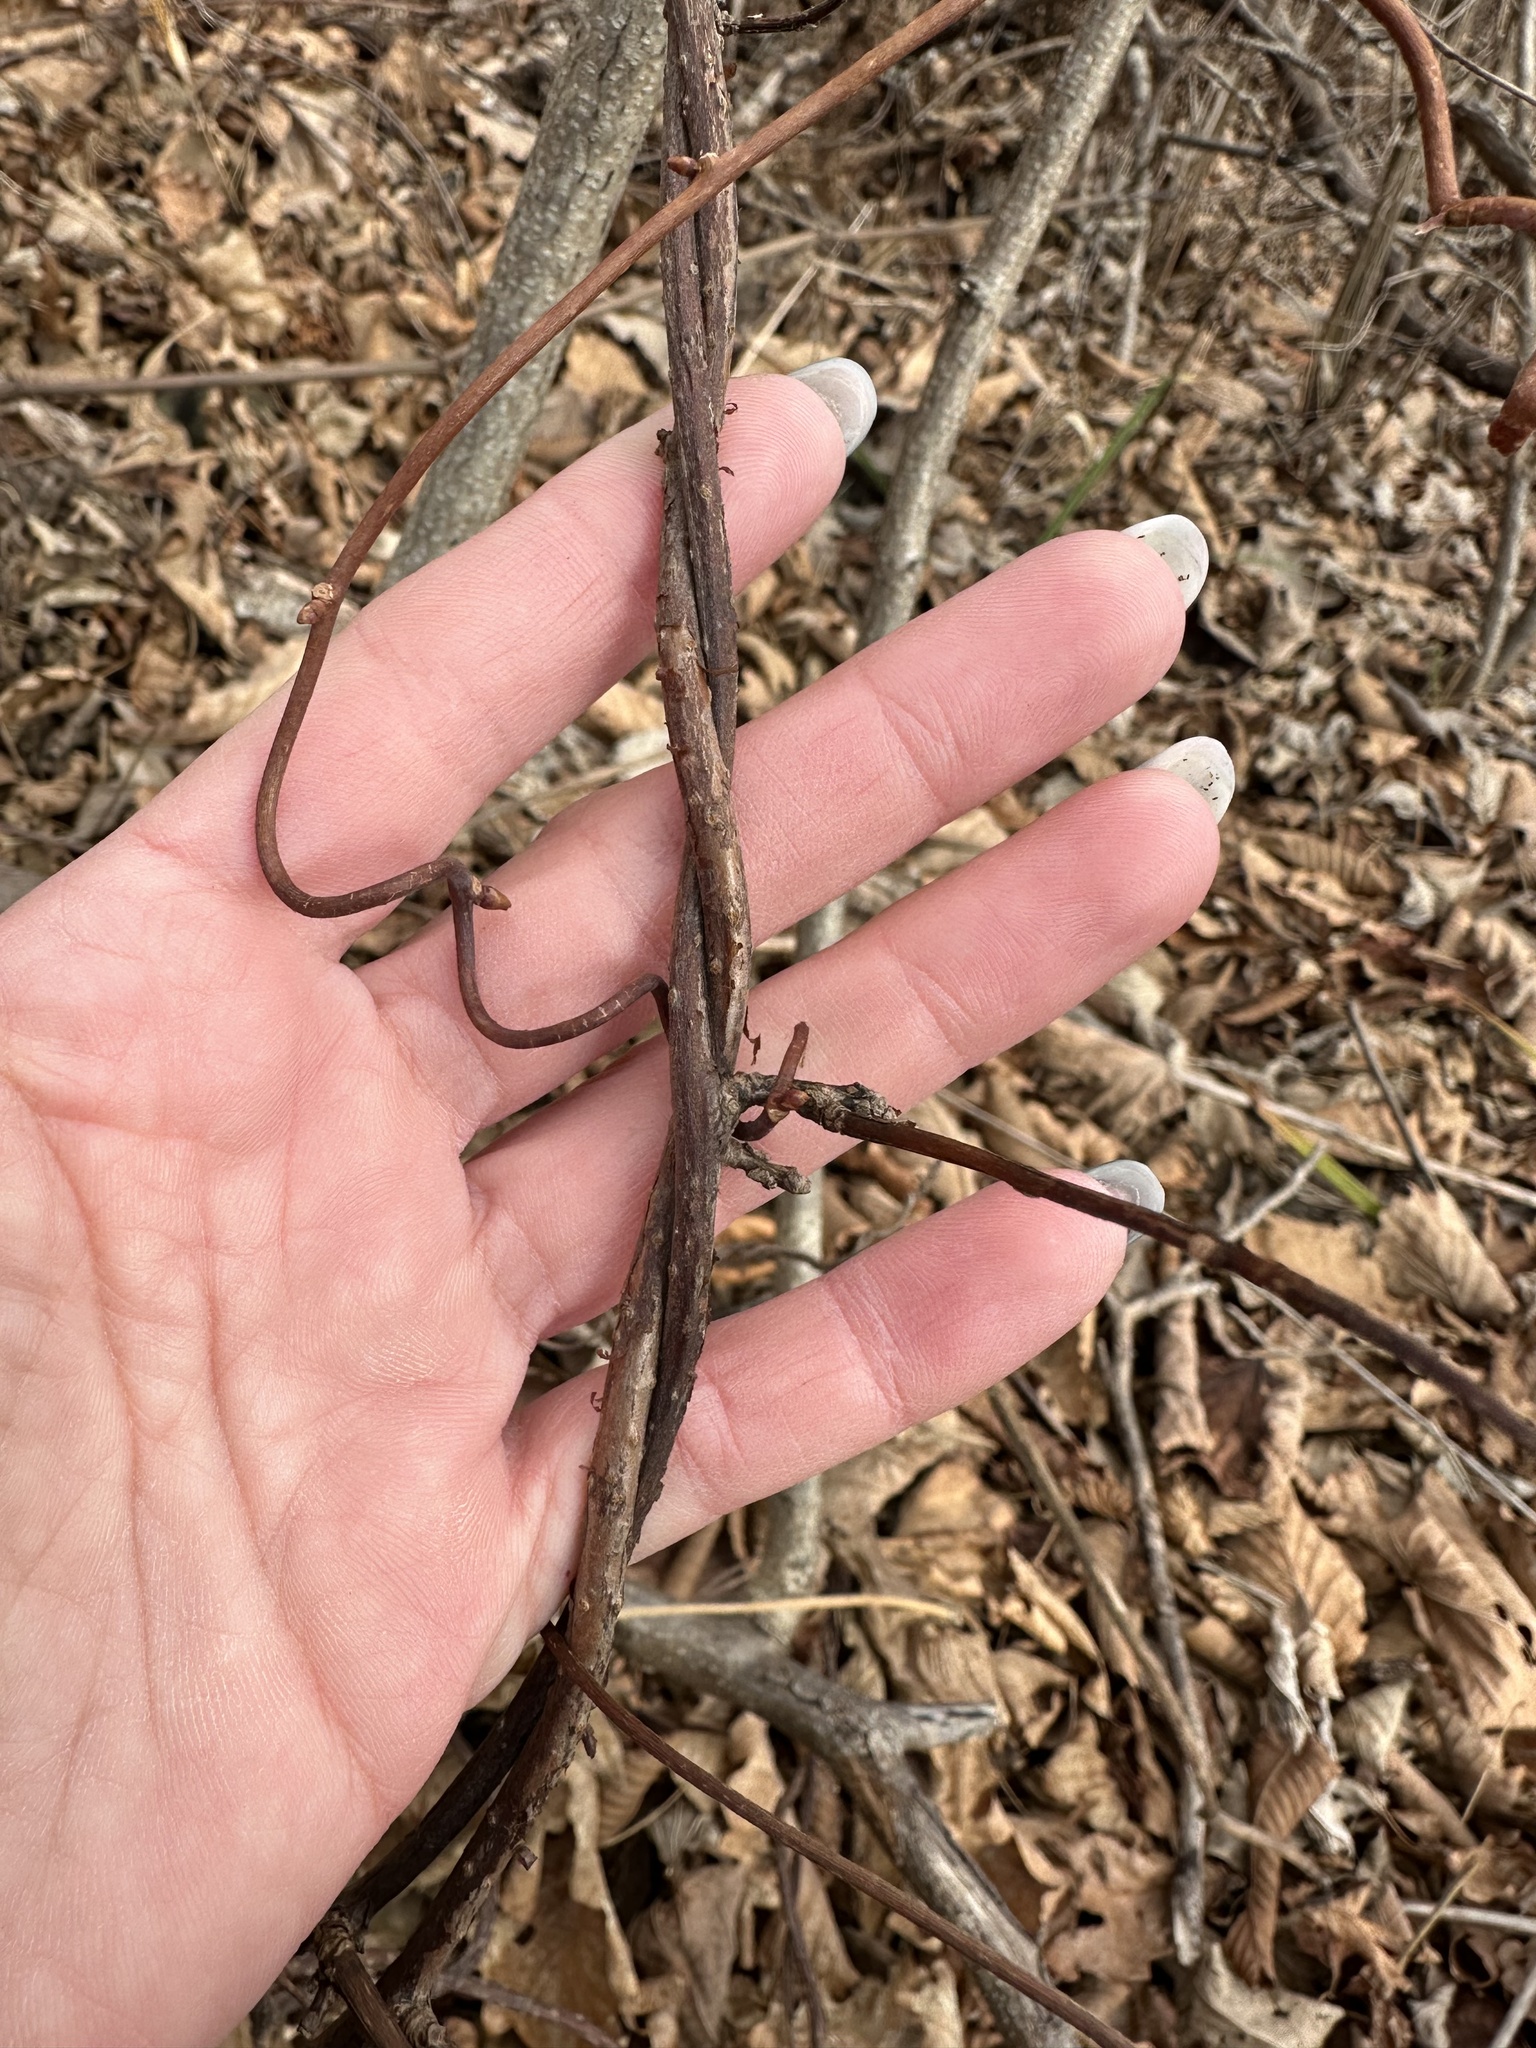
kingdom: Plantae
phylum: Tracheophyta
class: Magnoliopsida
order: Austrobaileyales
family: Schisandraceae
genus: Schisandra
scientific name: Schisandra chinensis
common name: Magnolia-vine
